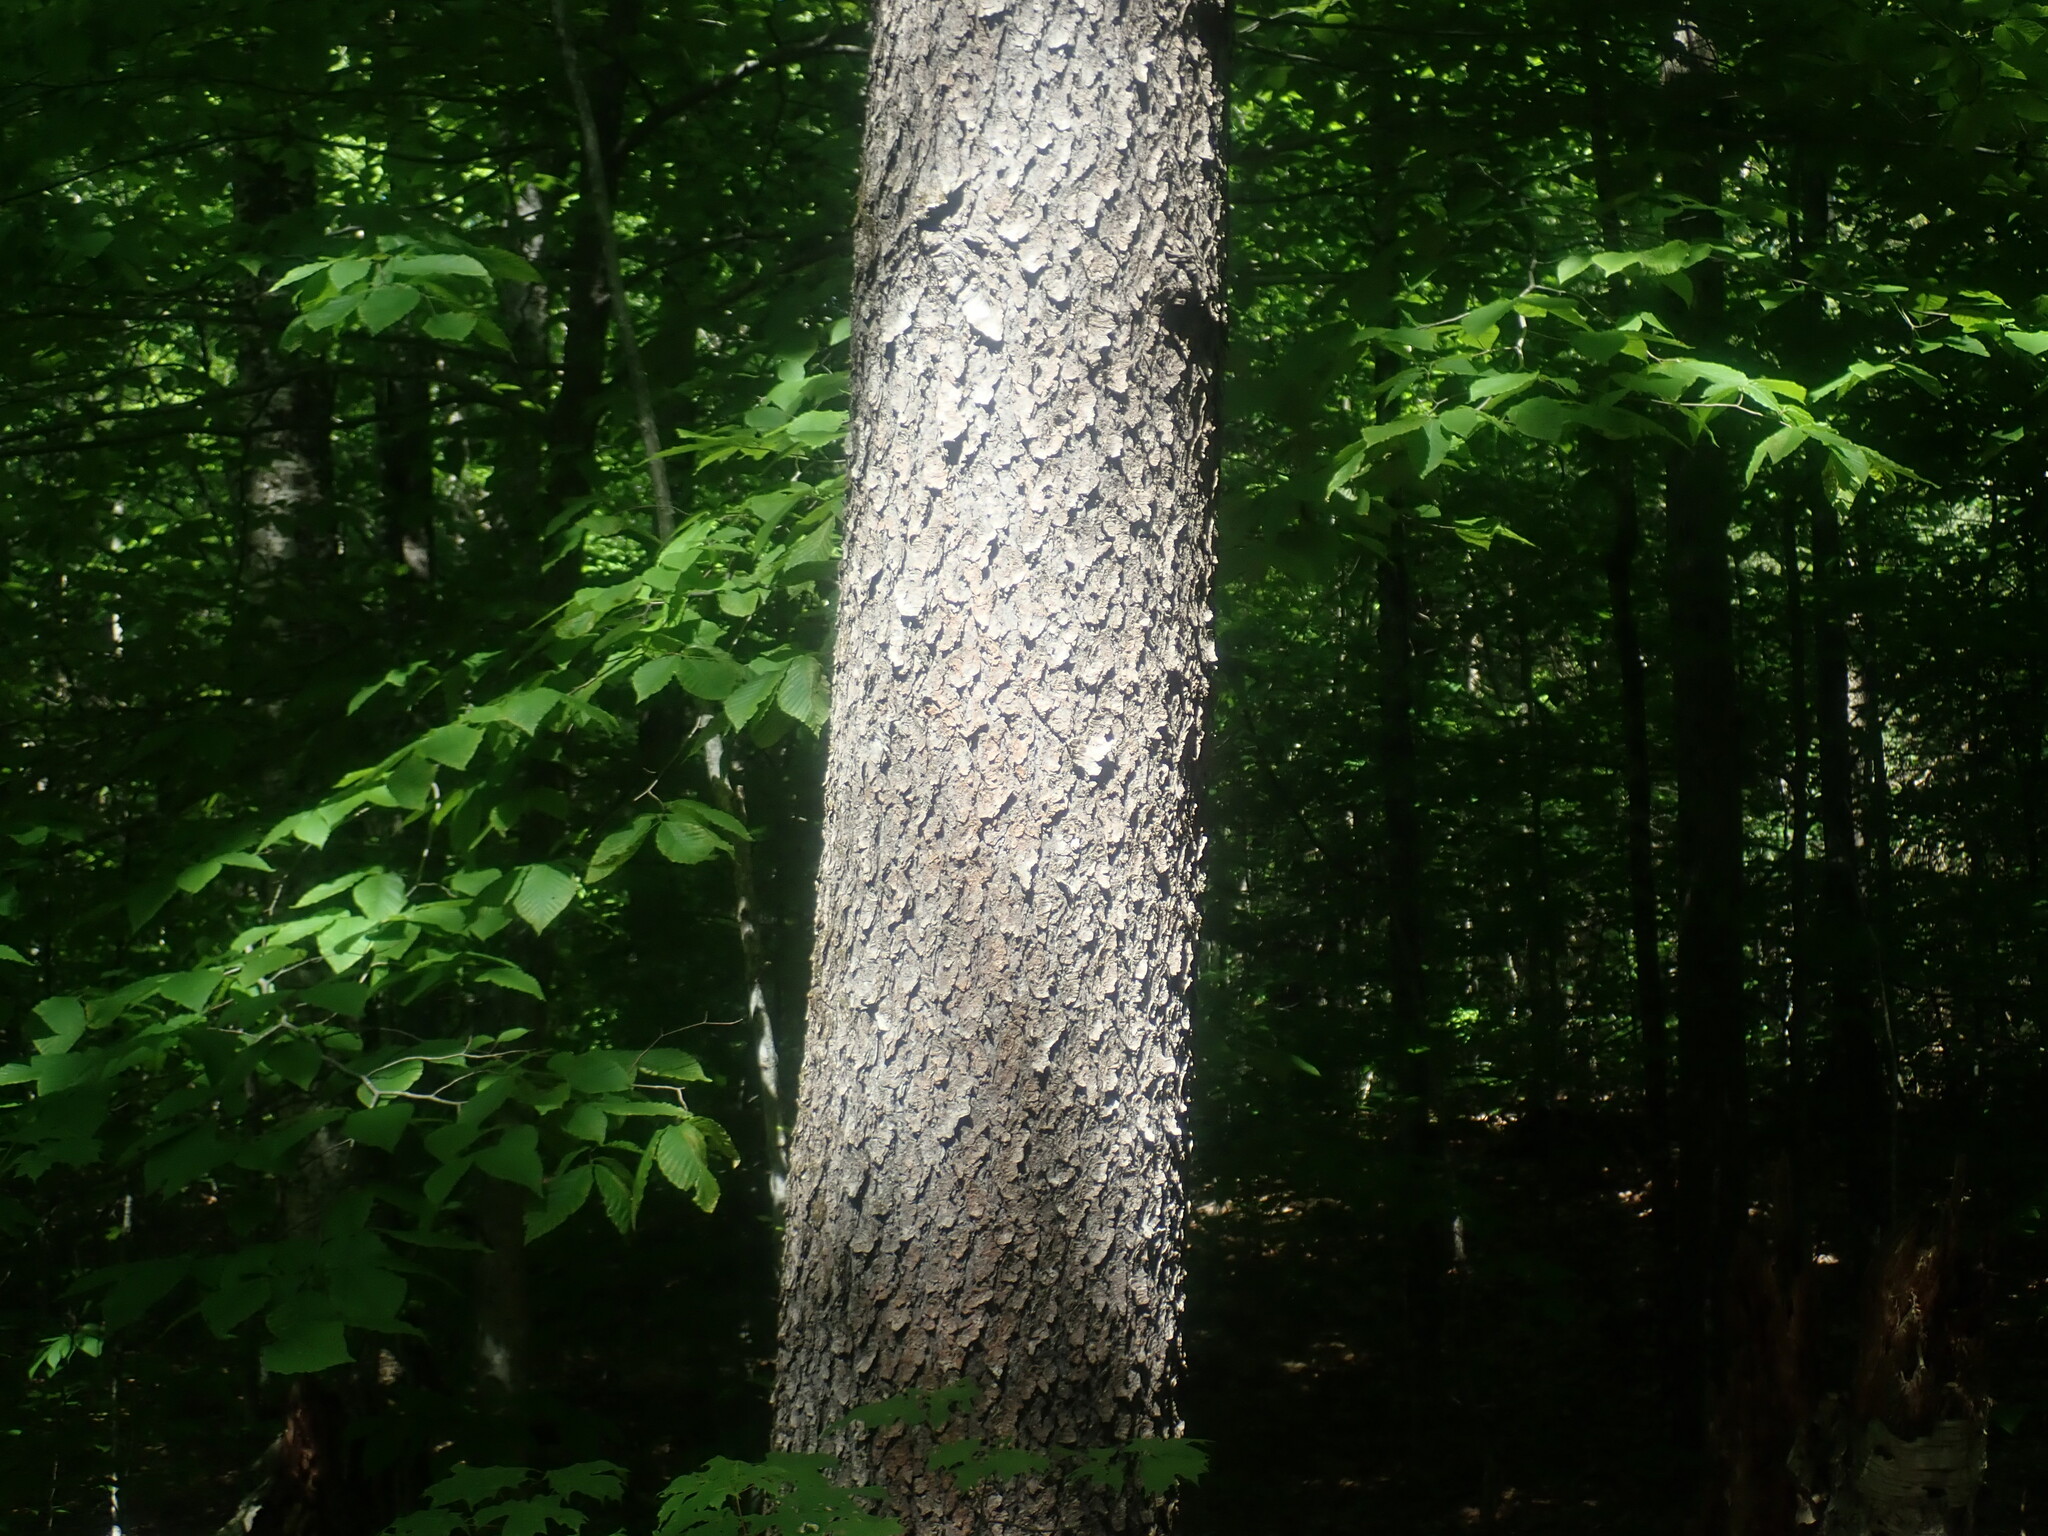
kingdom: Plantae
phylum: Tracheophyta
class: Magnoliopsida
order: Rosales
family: Rosaceae
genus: Prunus
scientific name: Prunus serotina
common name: Black cherry
